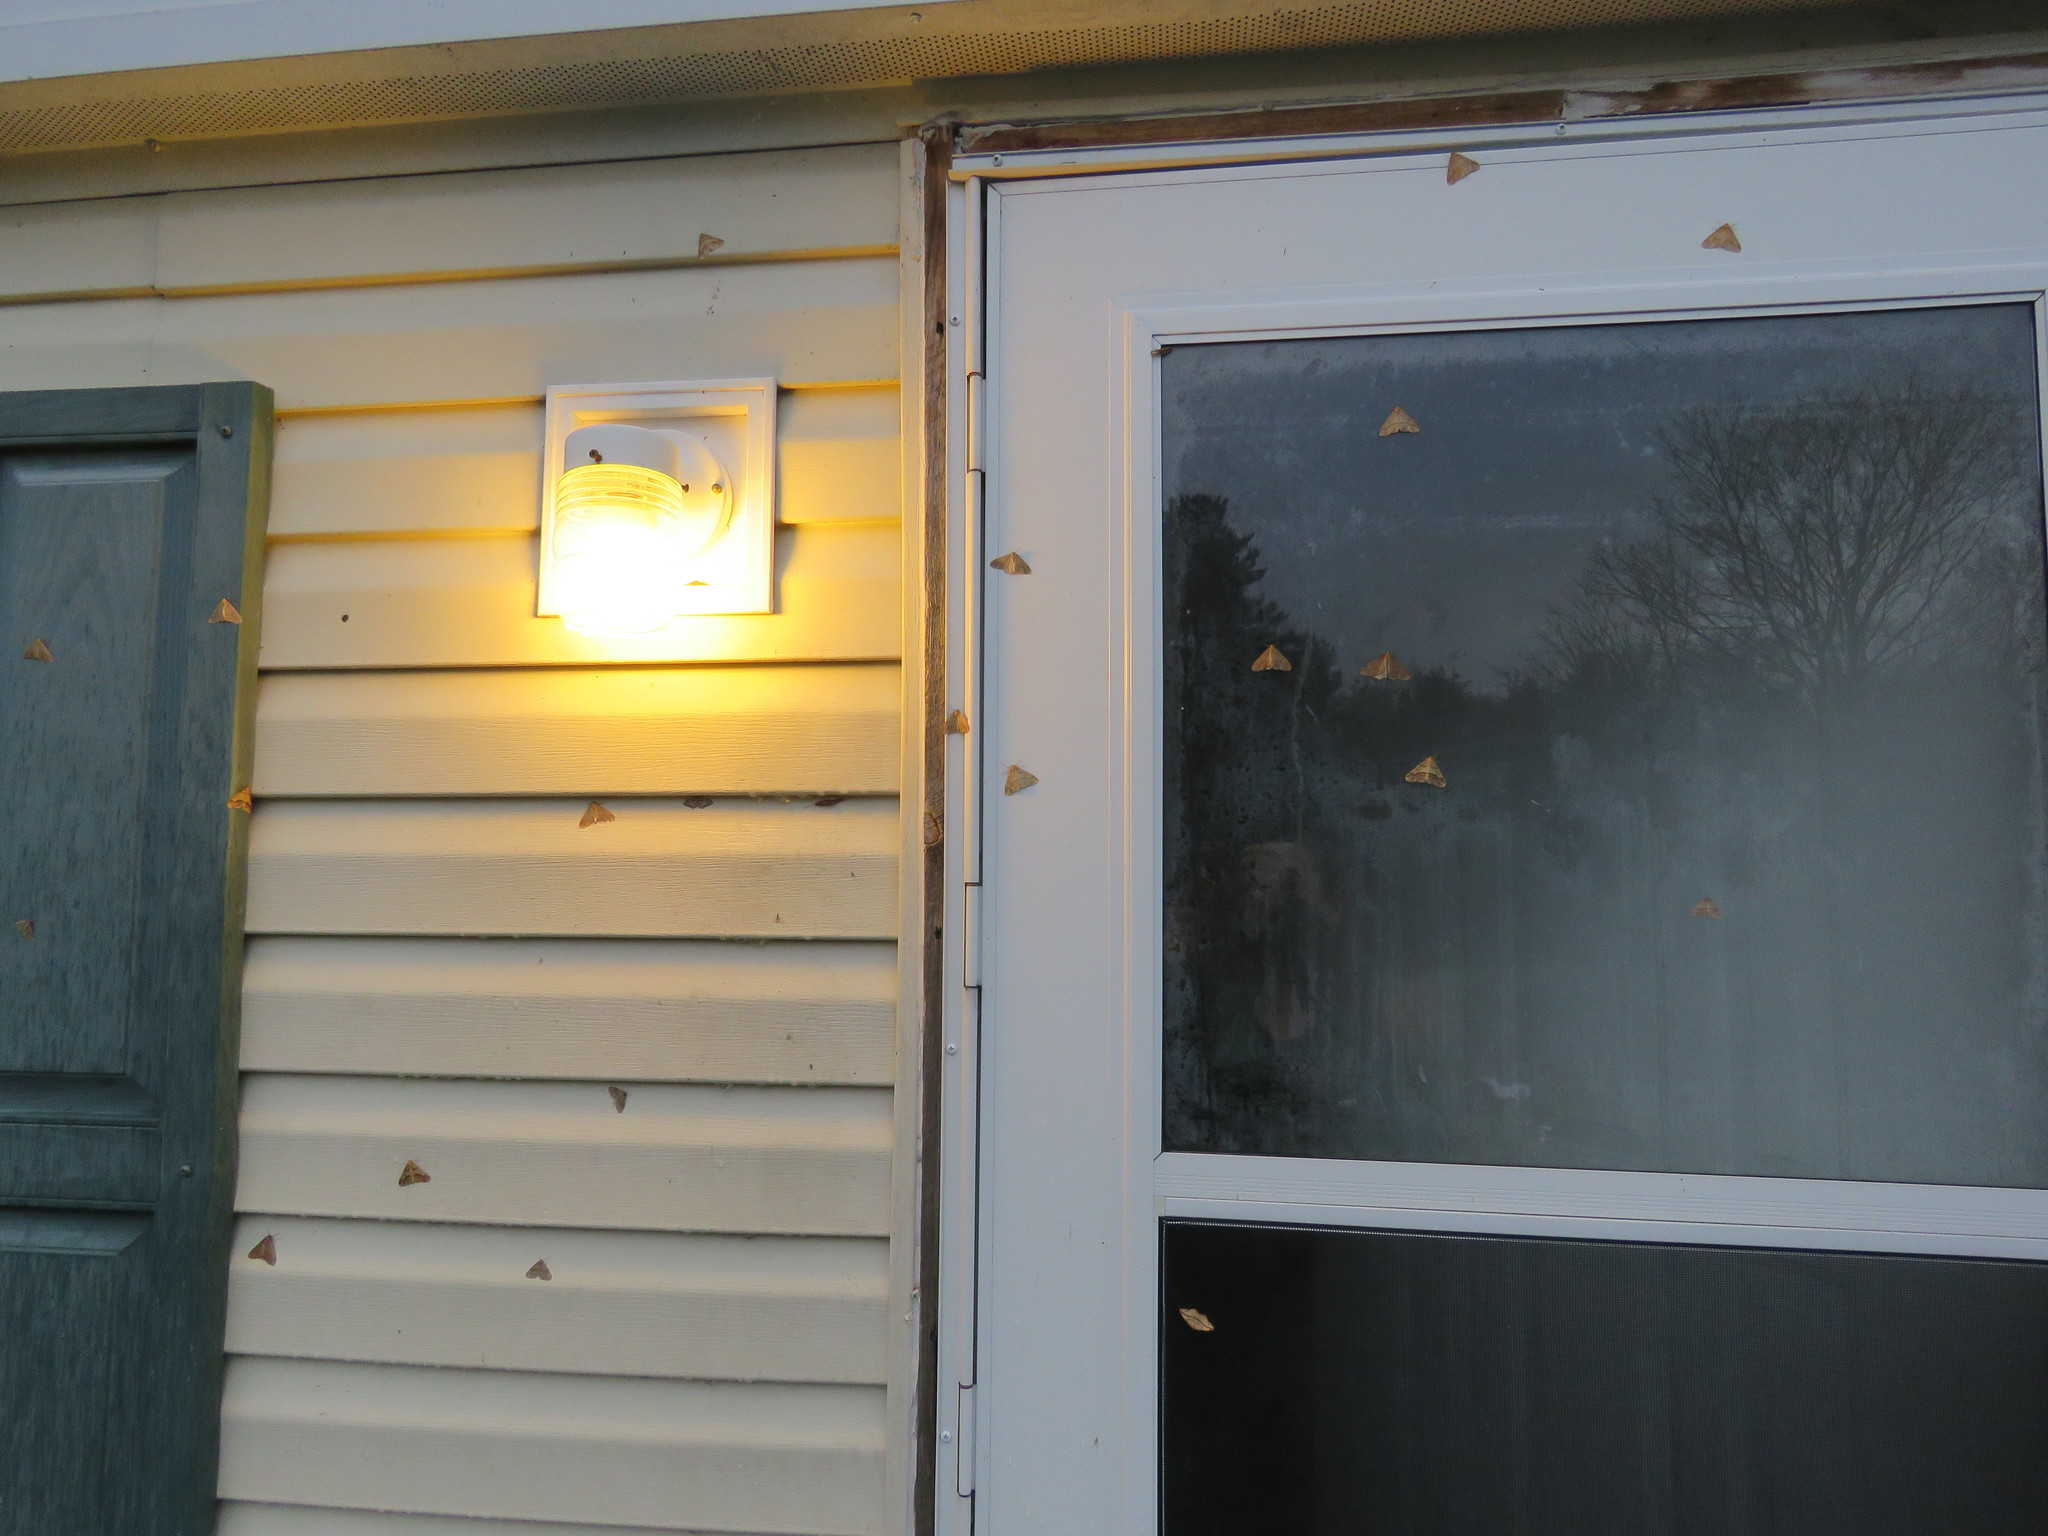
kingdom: Animalia
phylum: Arthropoda
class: Insecta
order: Lepidoptera
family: Geometridae
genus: Erannis
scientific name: Erannis tiliaria
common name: Linden looper
